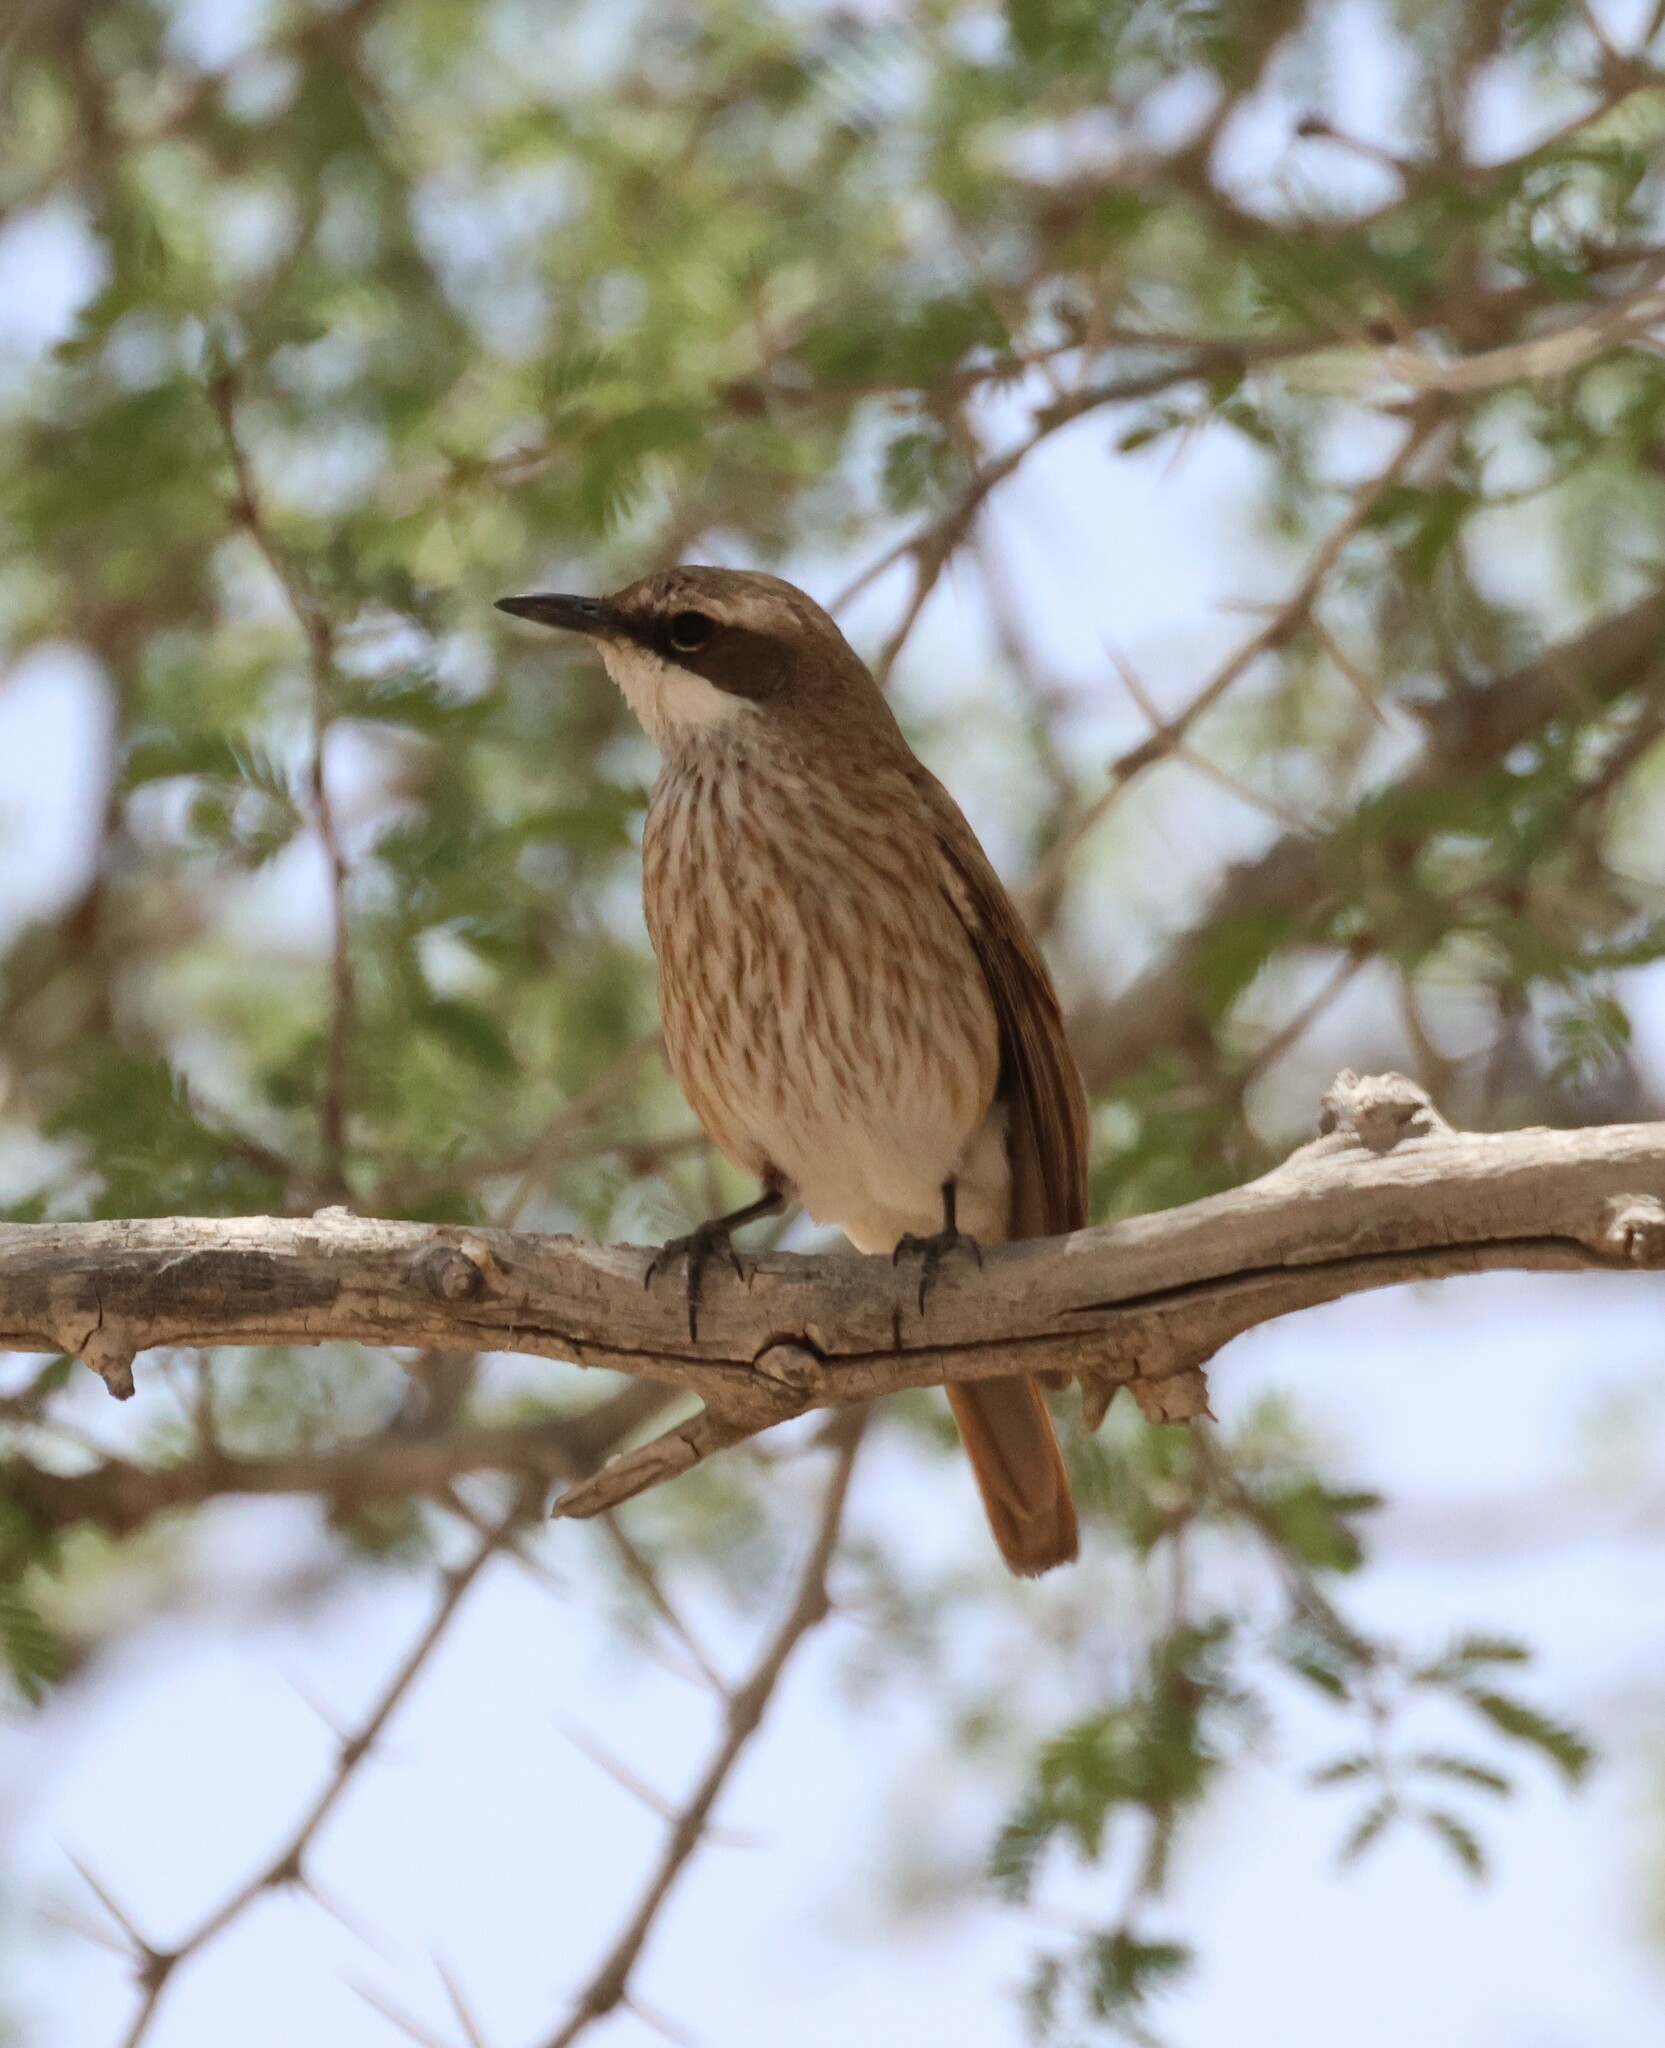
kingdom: Animalia
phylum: Chordata
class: Aves
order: Passeriformes
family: Muscicapidae
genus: Namibornis
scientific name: Namibornis herero
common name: Herero chat
